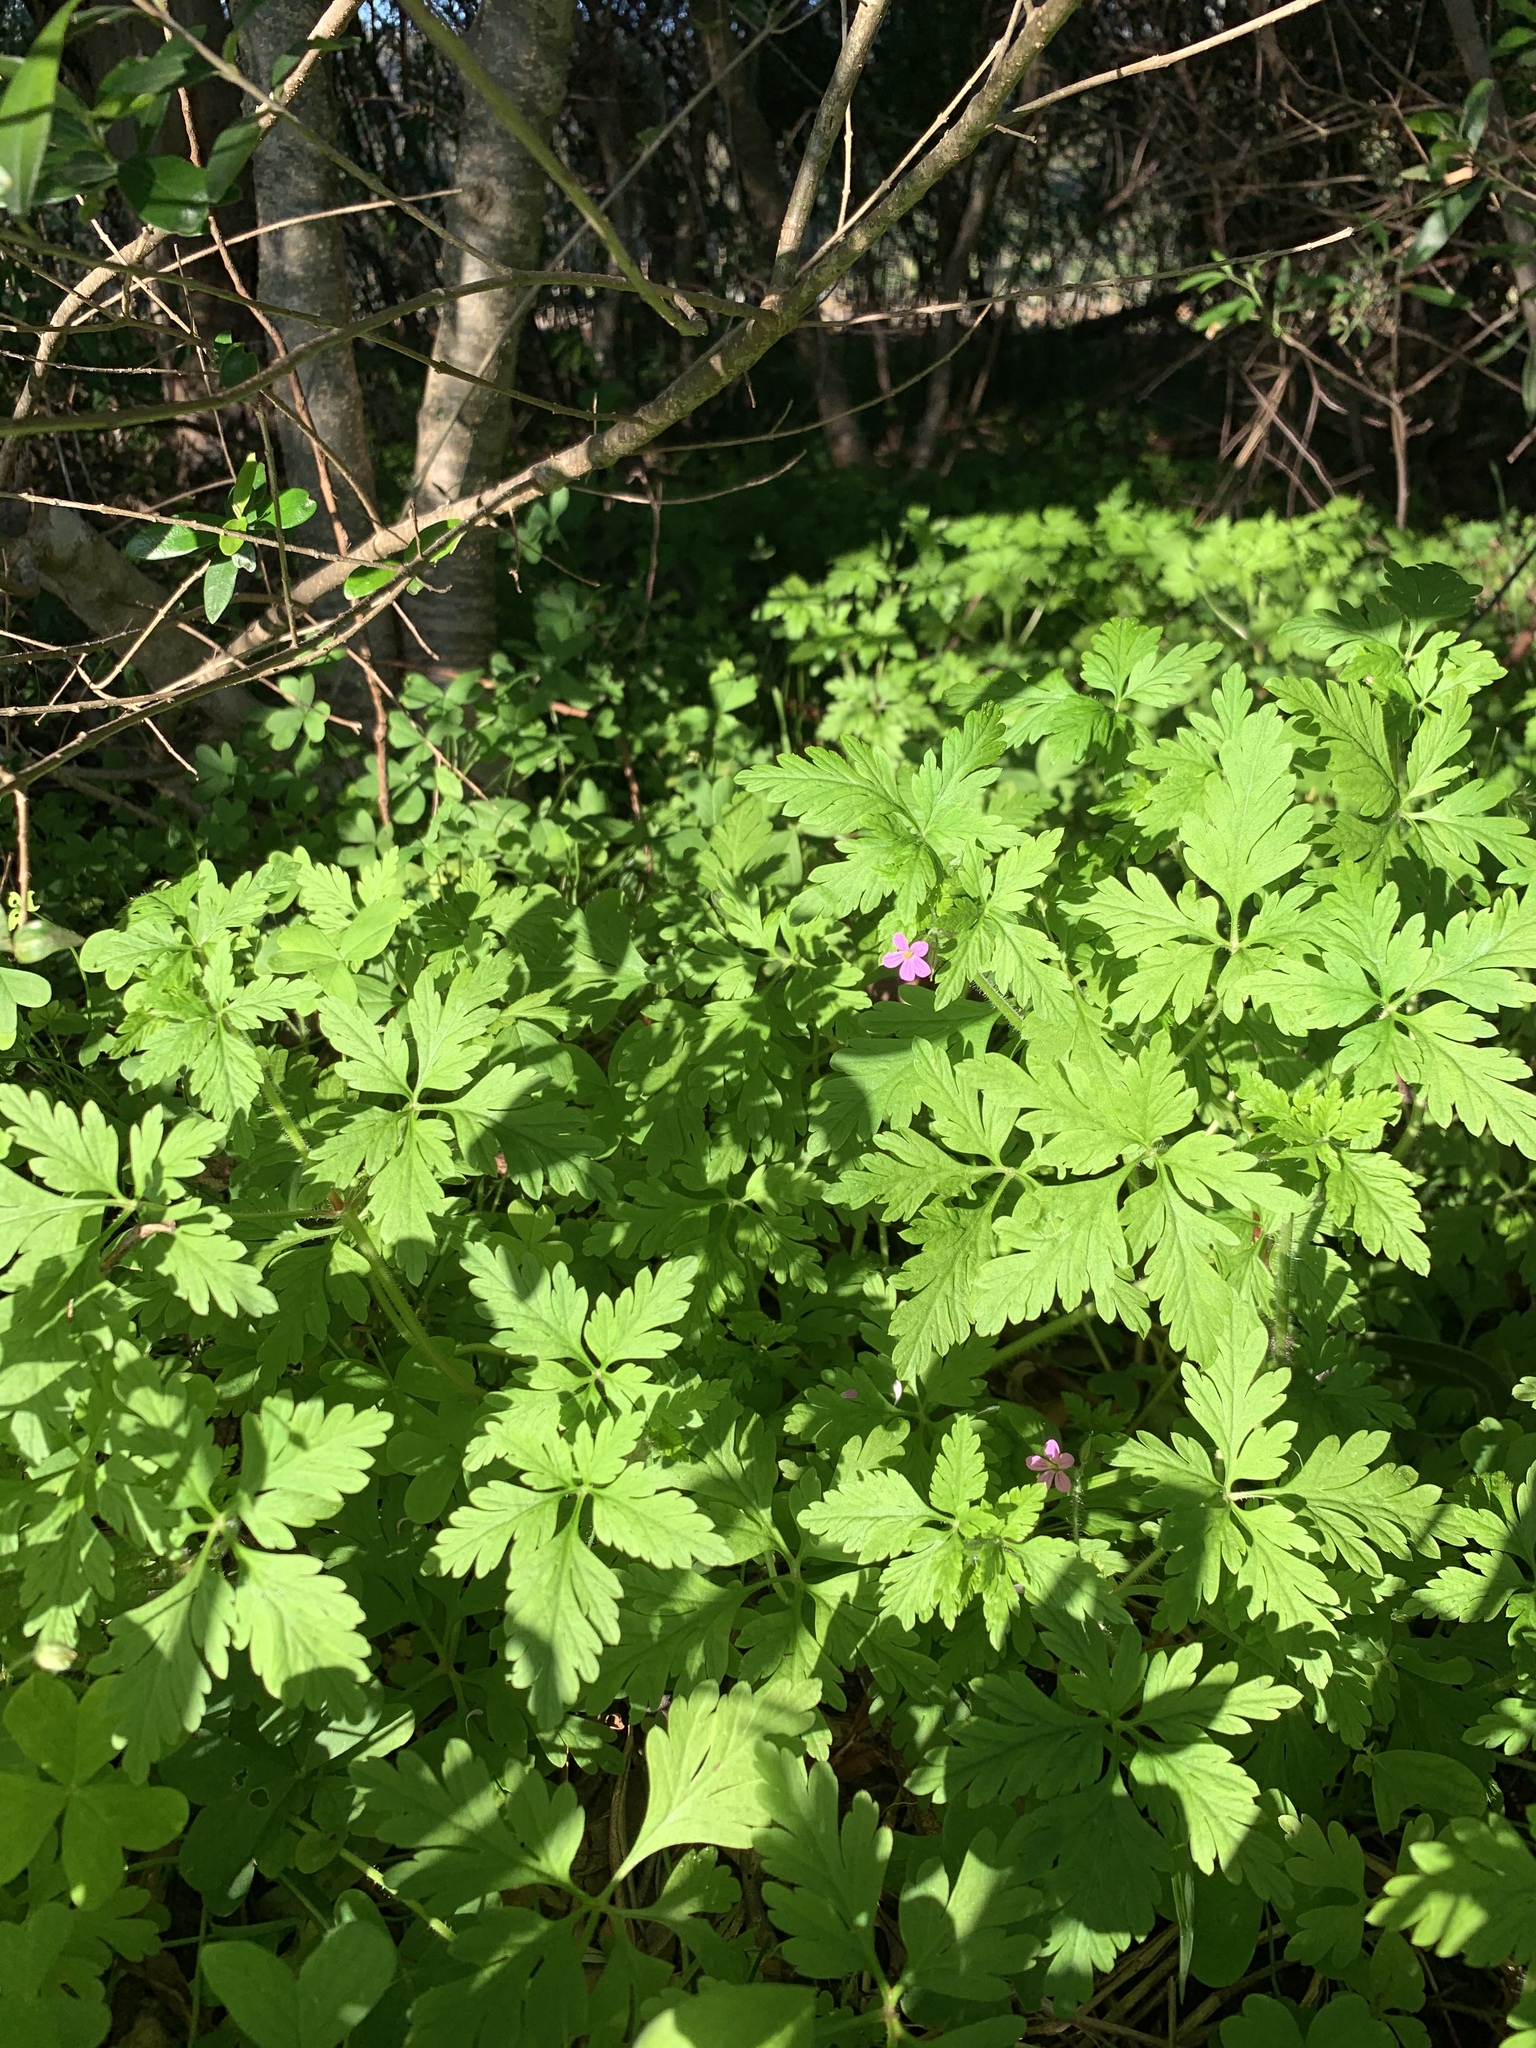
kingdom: Plantae
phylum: Tracheophyta
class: Magnoliopsida
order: Geraniales
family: Geraniaceae
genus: Geranium
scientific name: Geranium purpureum
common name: Little-robin
